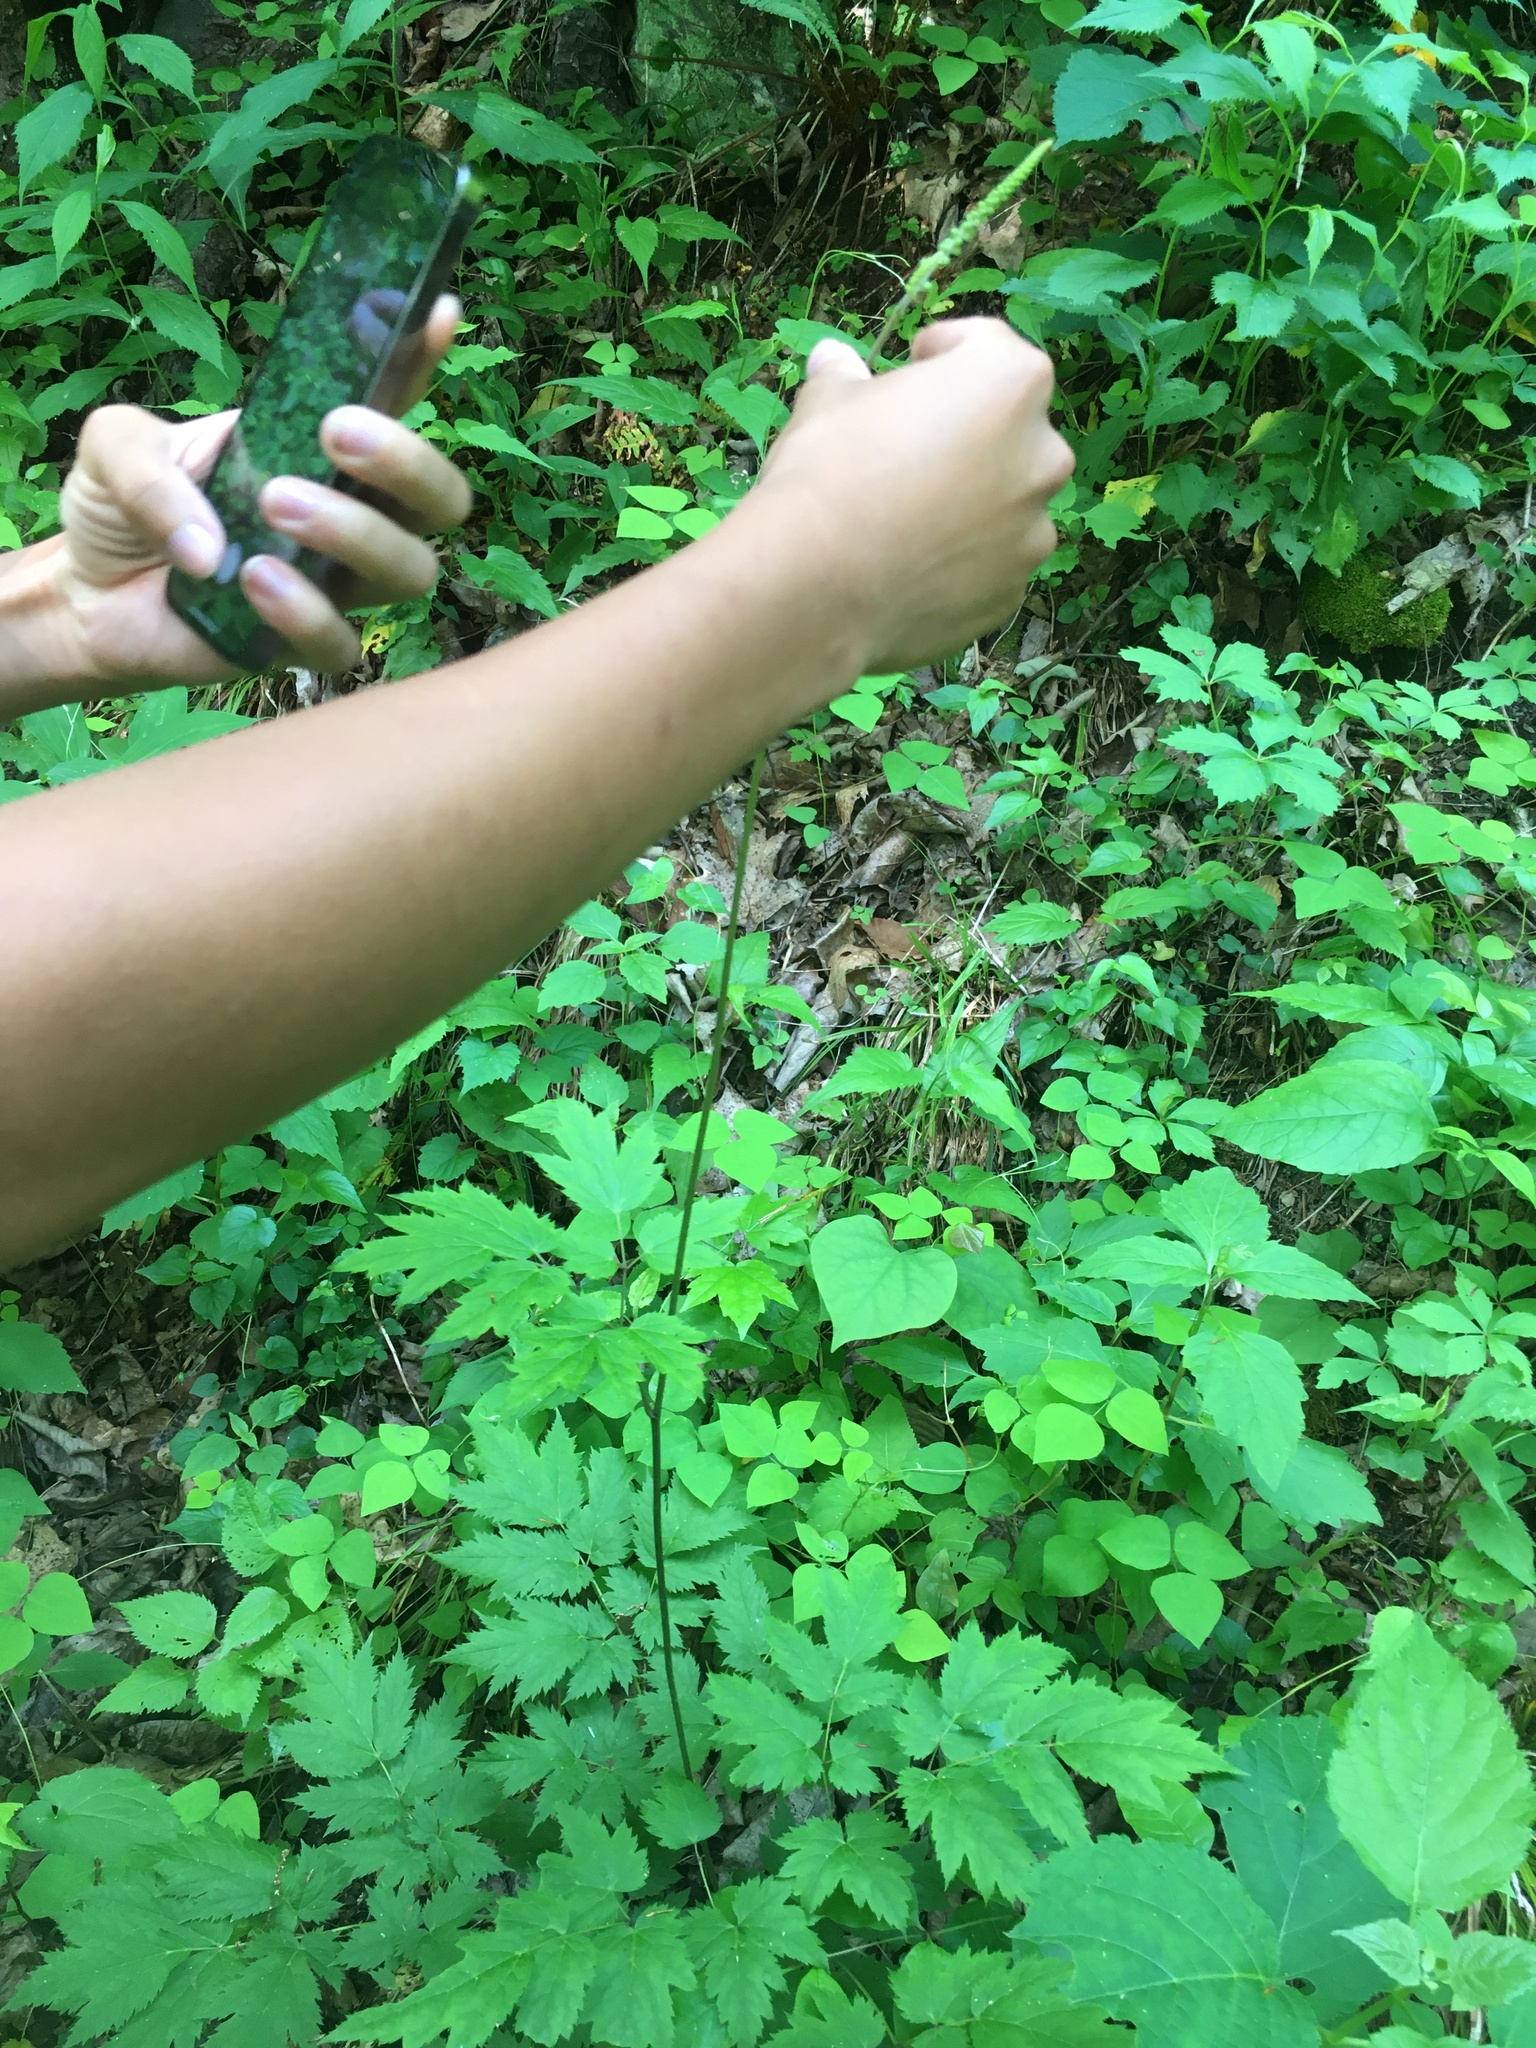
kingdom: Plantae
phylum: Tracheophyta
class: Magnoliopsida
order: Ranunculales
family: Ranunculaceae
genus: Actaea
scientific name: Actaea racemosa
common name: Black cohosh
